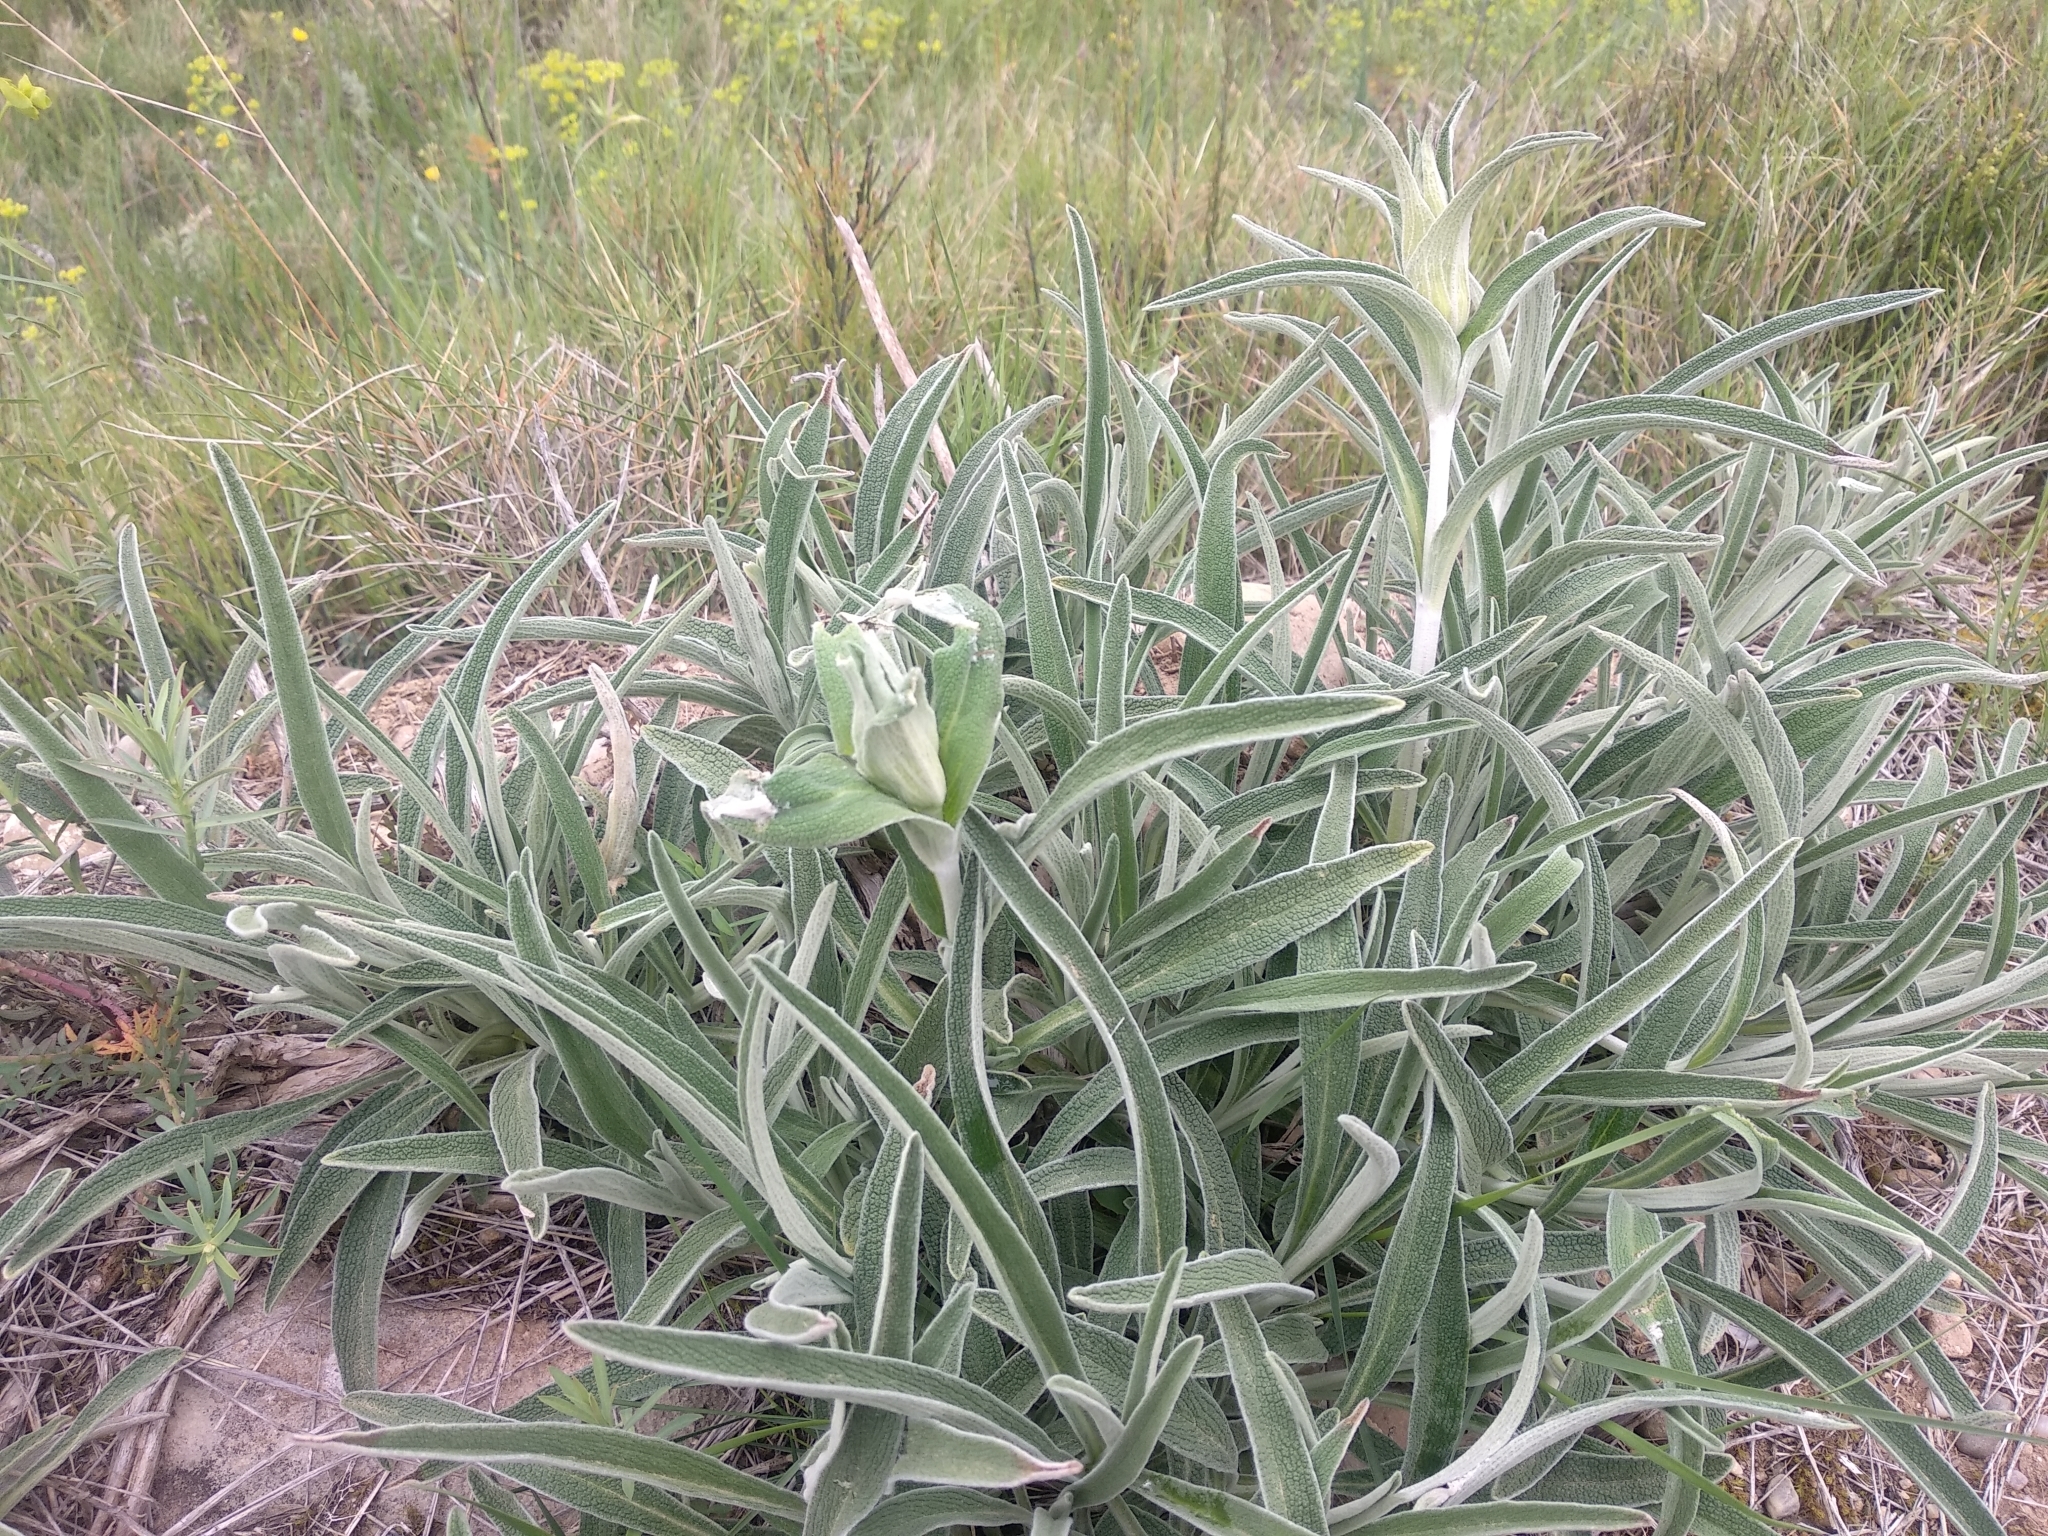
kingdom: Plantae
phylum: Tracheophyta
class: Magnoliopsida
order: Lamiales
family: Lamiaceae
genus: Phlomis
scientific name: Phlomis lychnitis
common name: Lampwickplant
